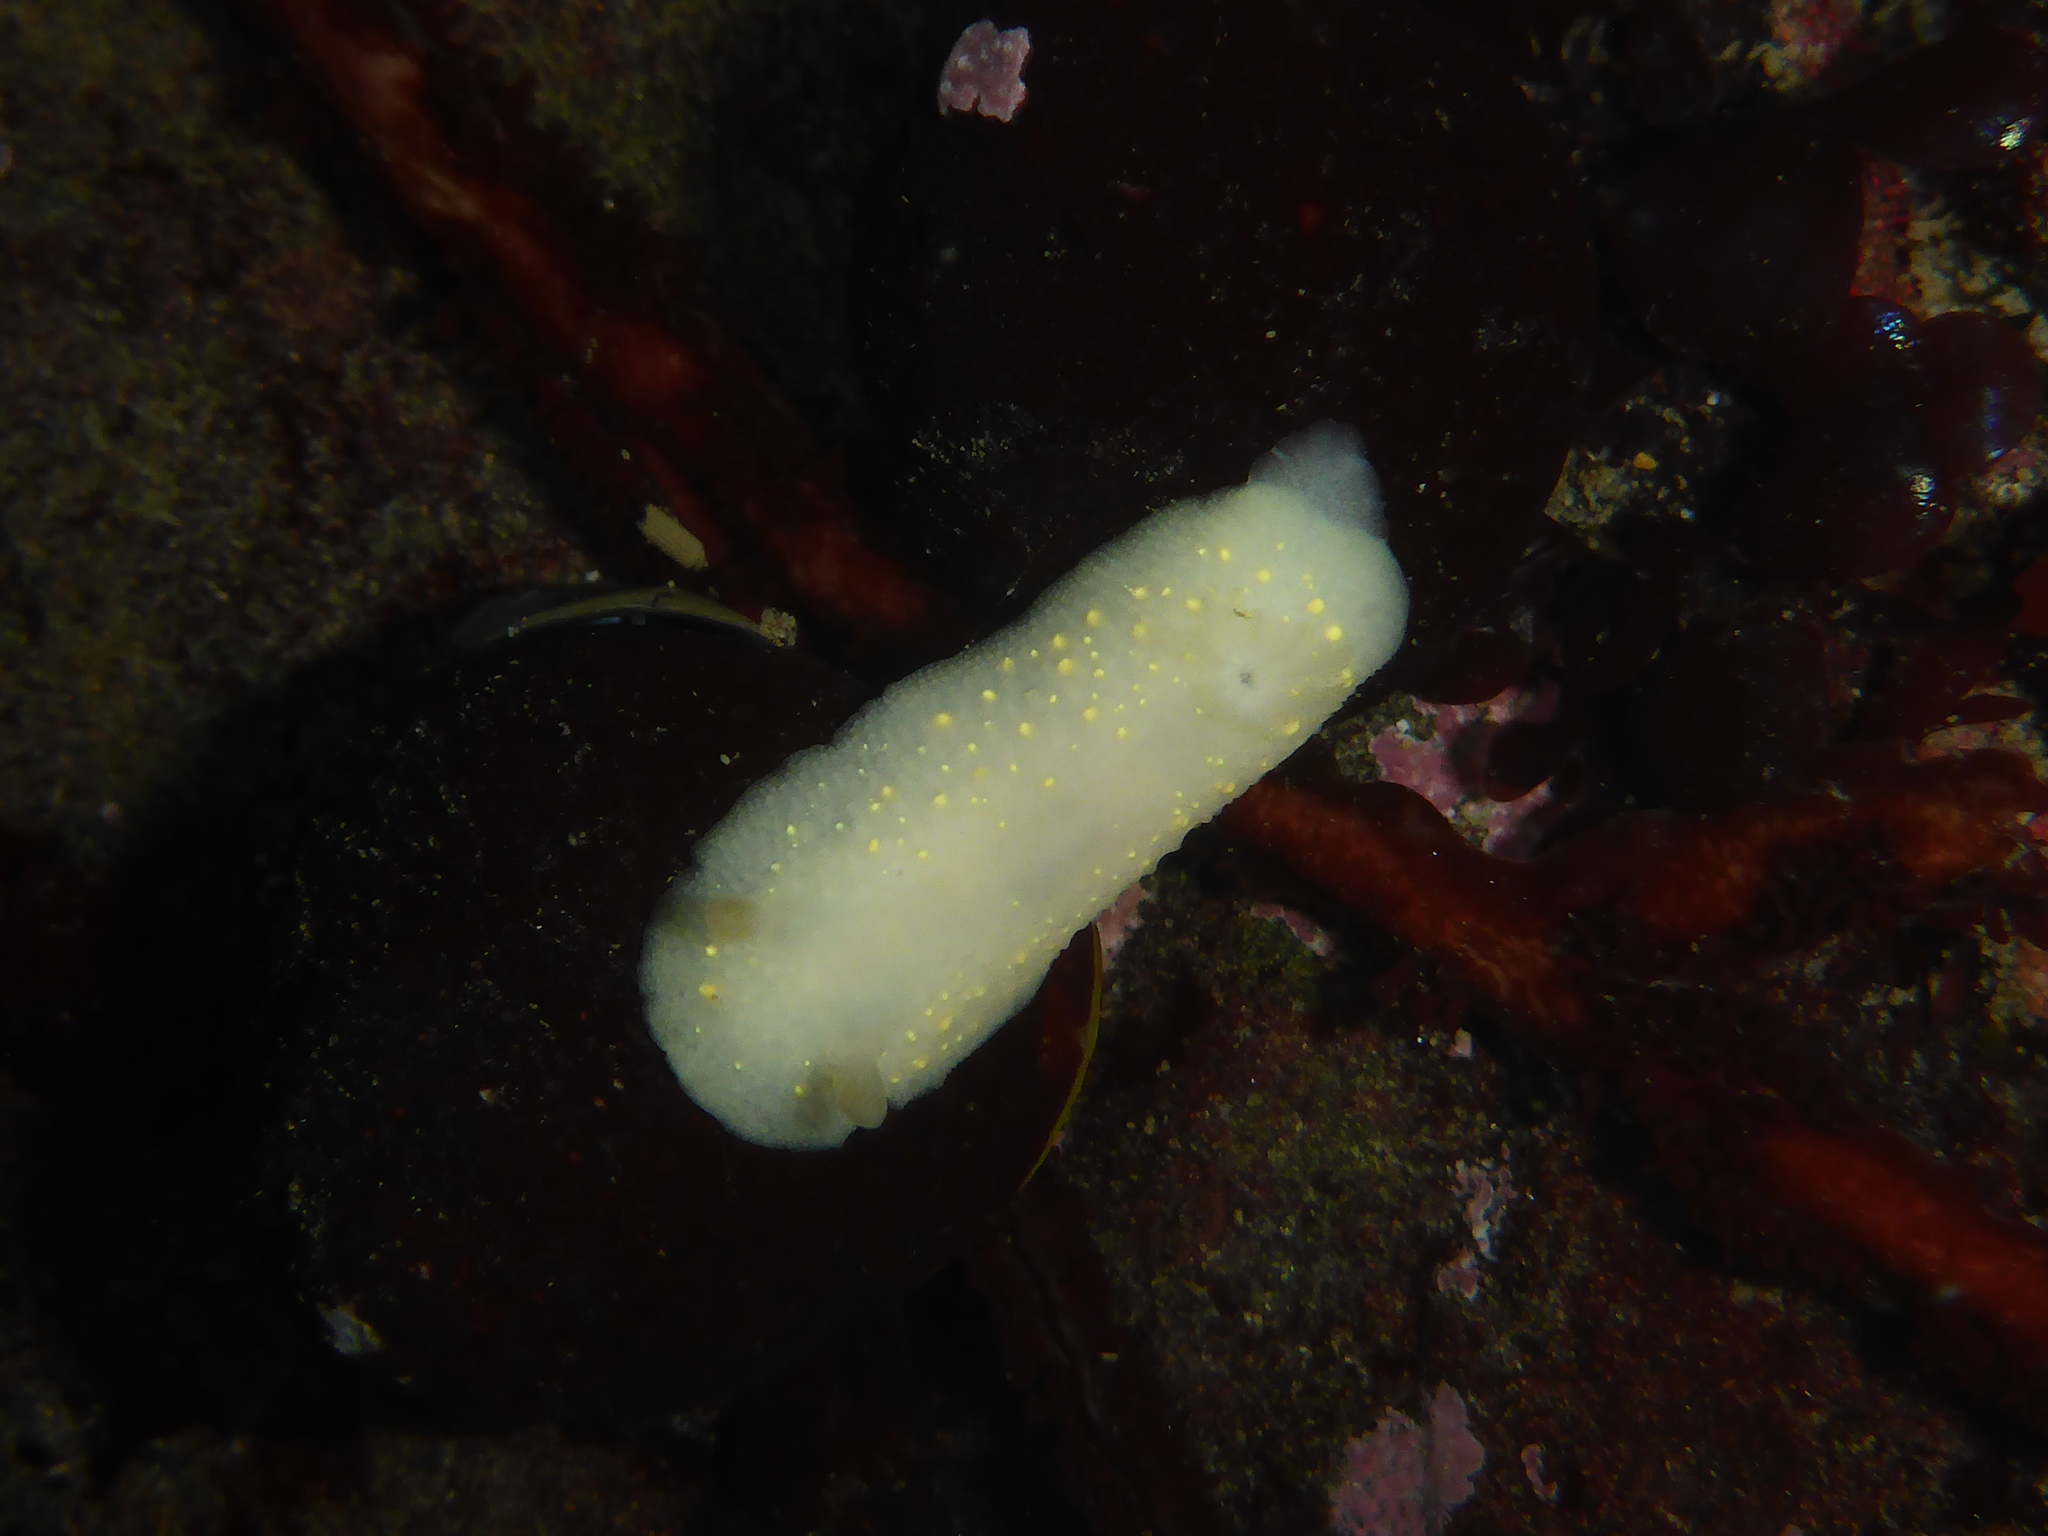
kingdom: Animalia
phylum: Mollusca
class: Gastropoda
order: Nudibranchia
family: Cadlinidae
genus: Cadlina
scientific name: Cadlina modesta
